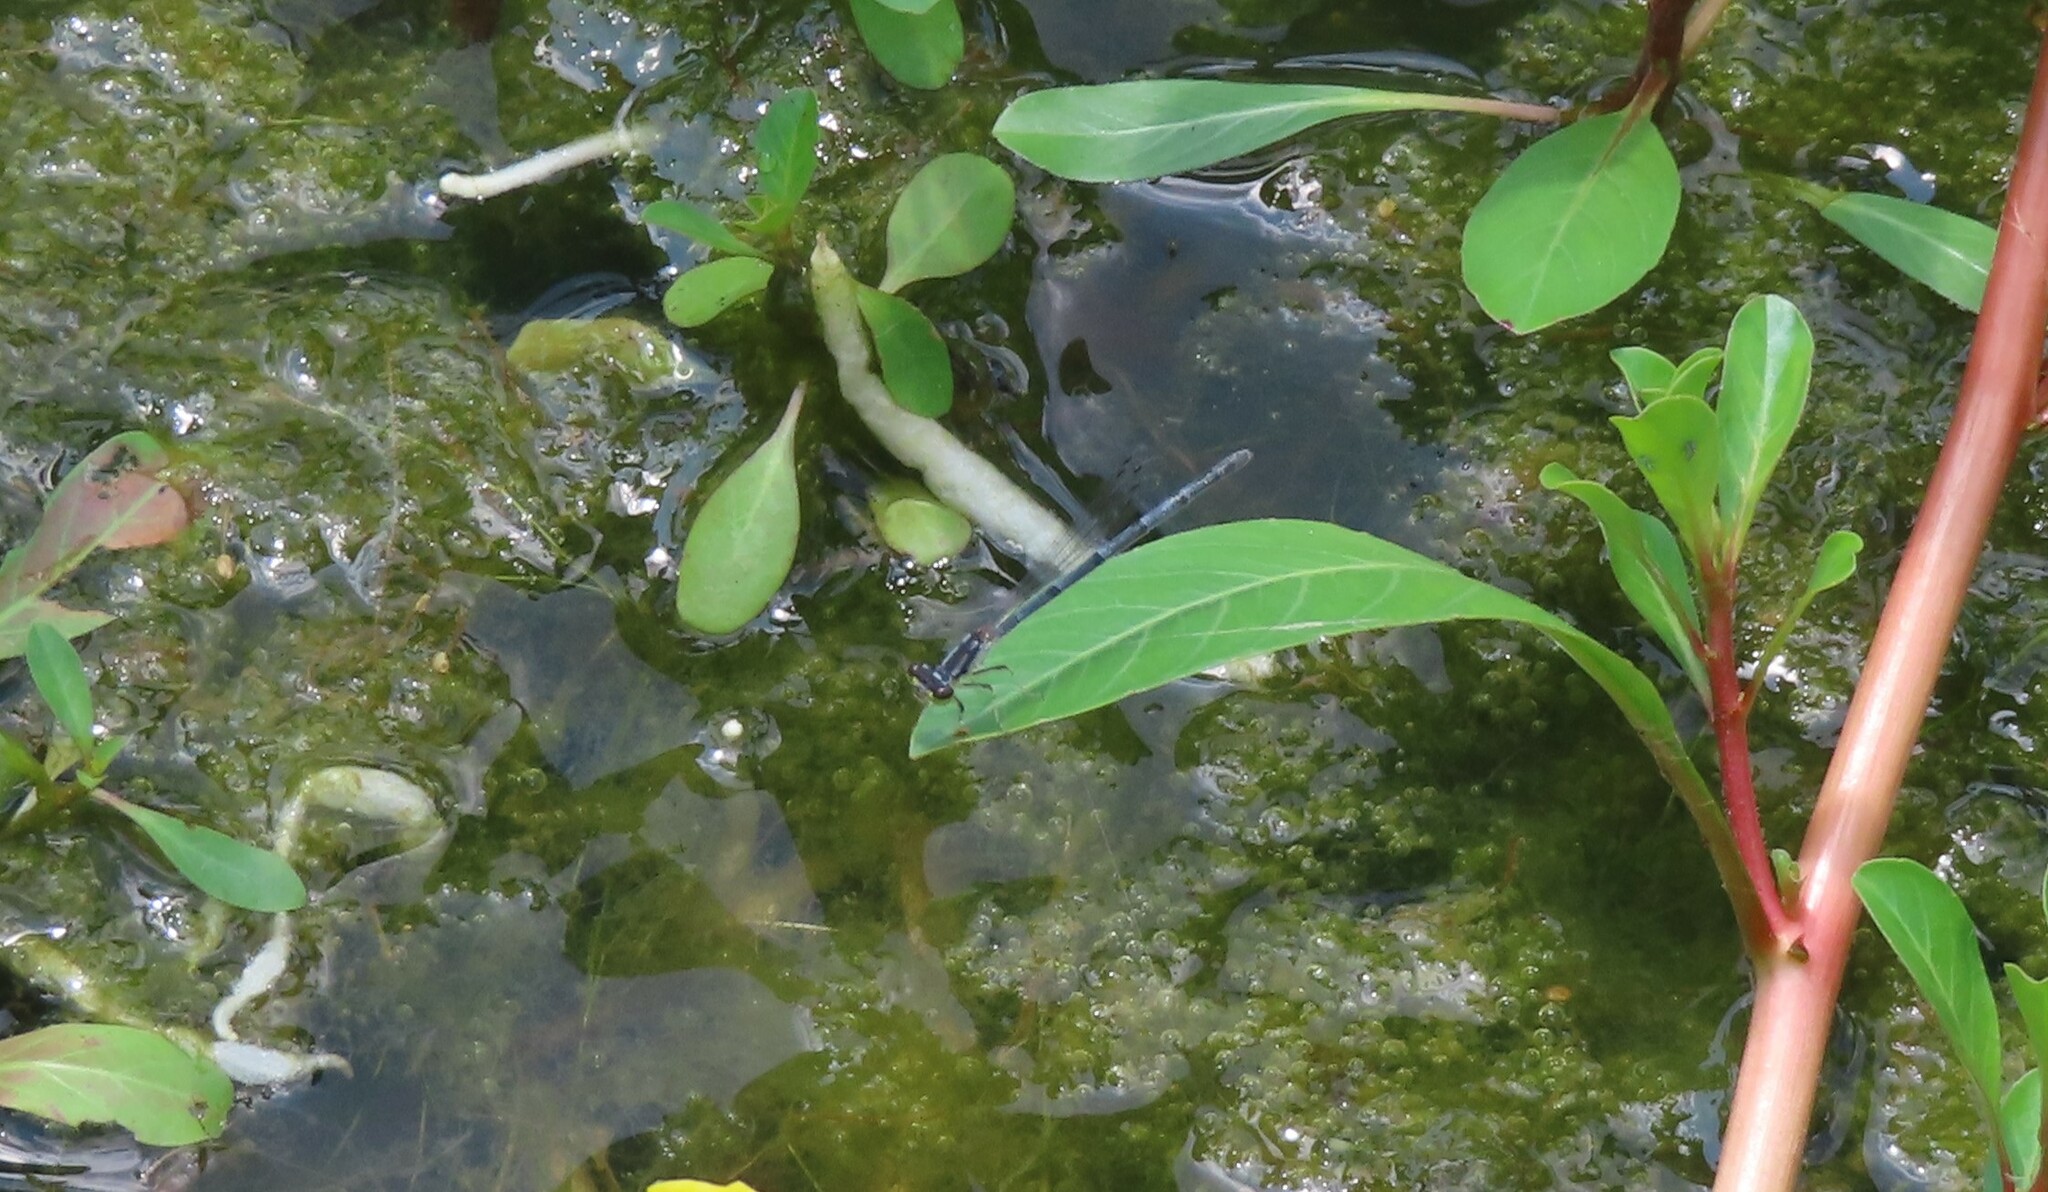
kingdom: Animalia
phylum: Arthropoda
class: Insecta
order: Odonata
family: Coenagrionidae
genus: Ischnura
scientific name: Ischnura posita
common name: Fragile forktail
